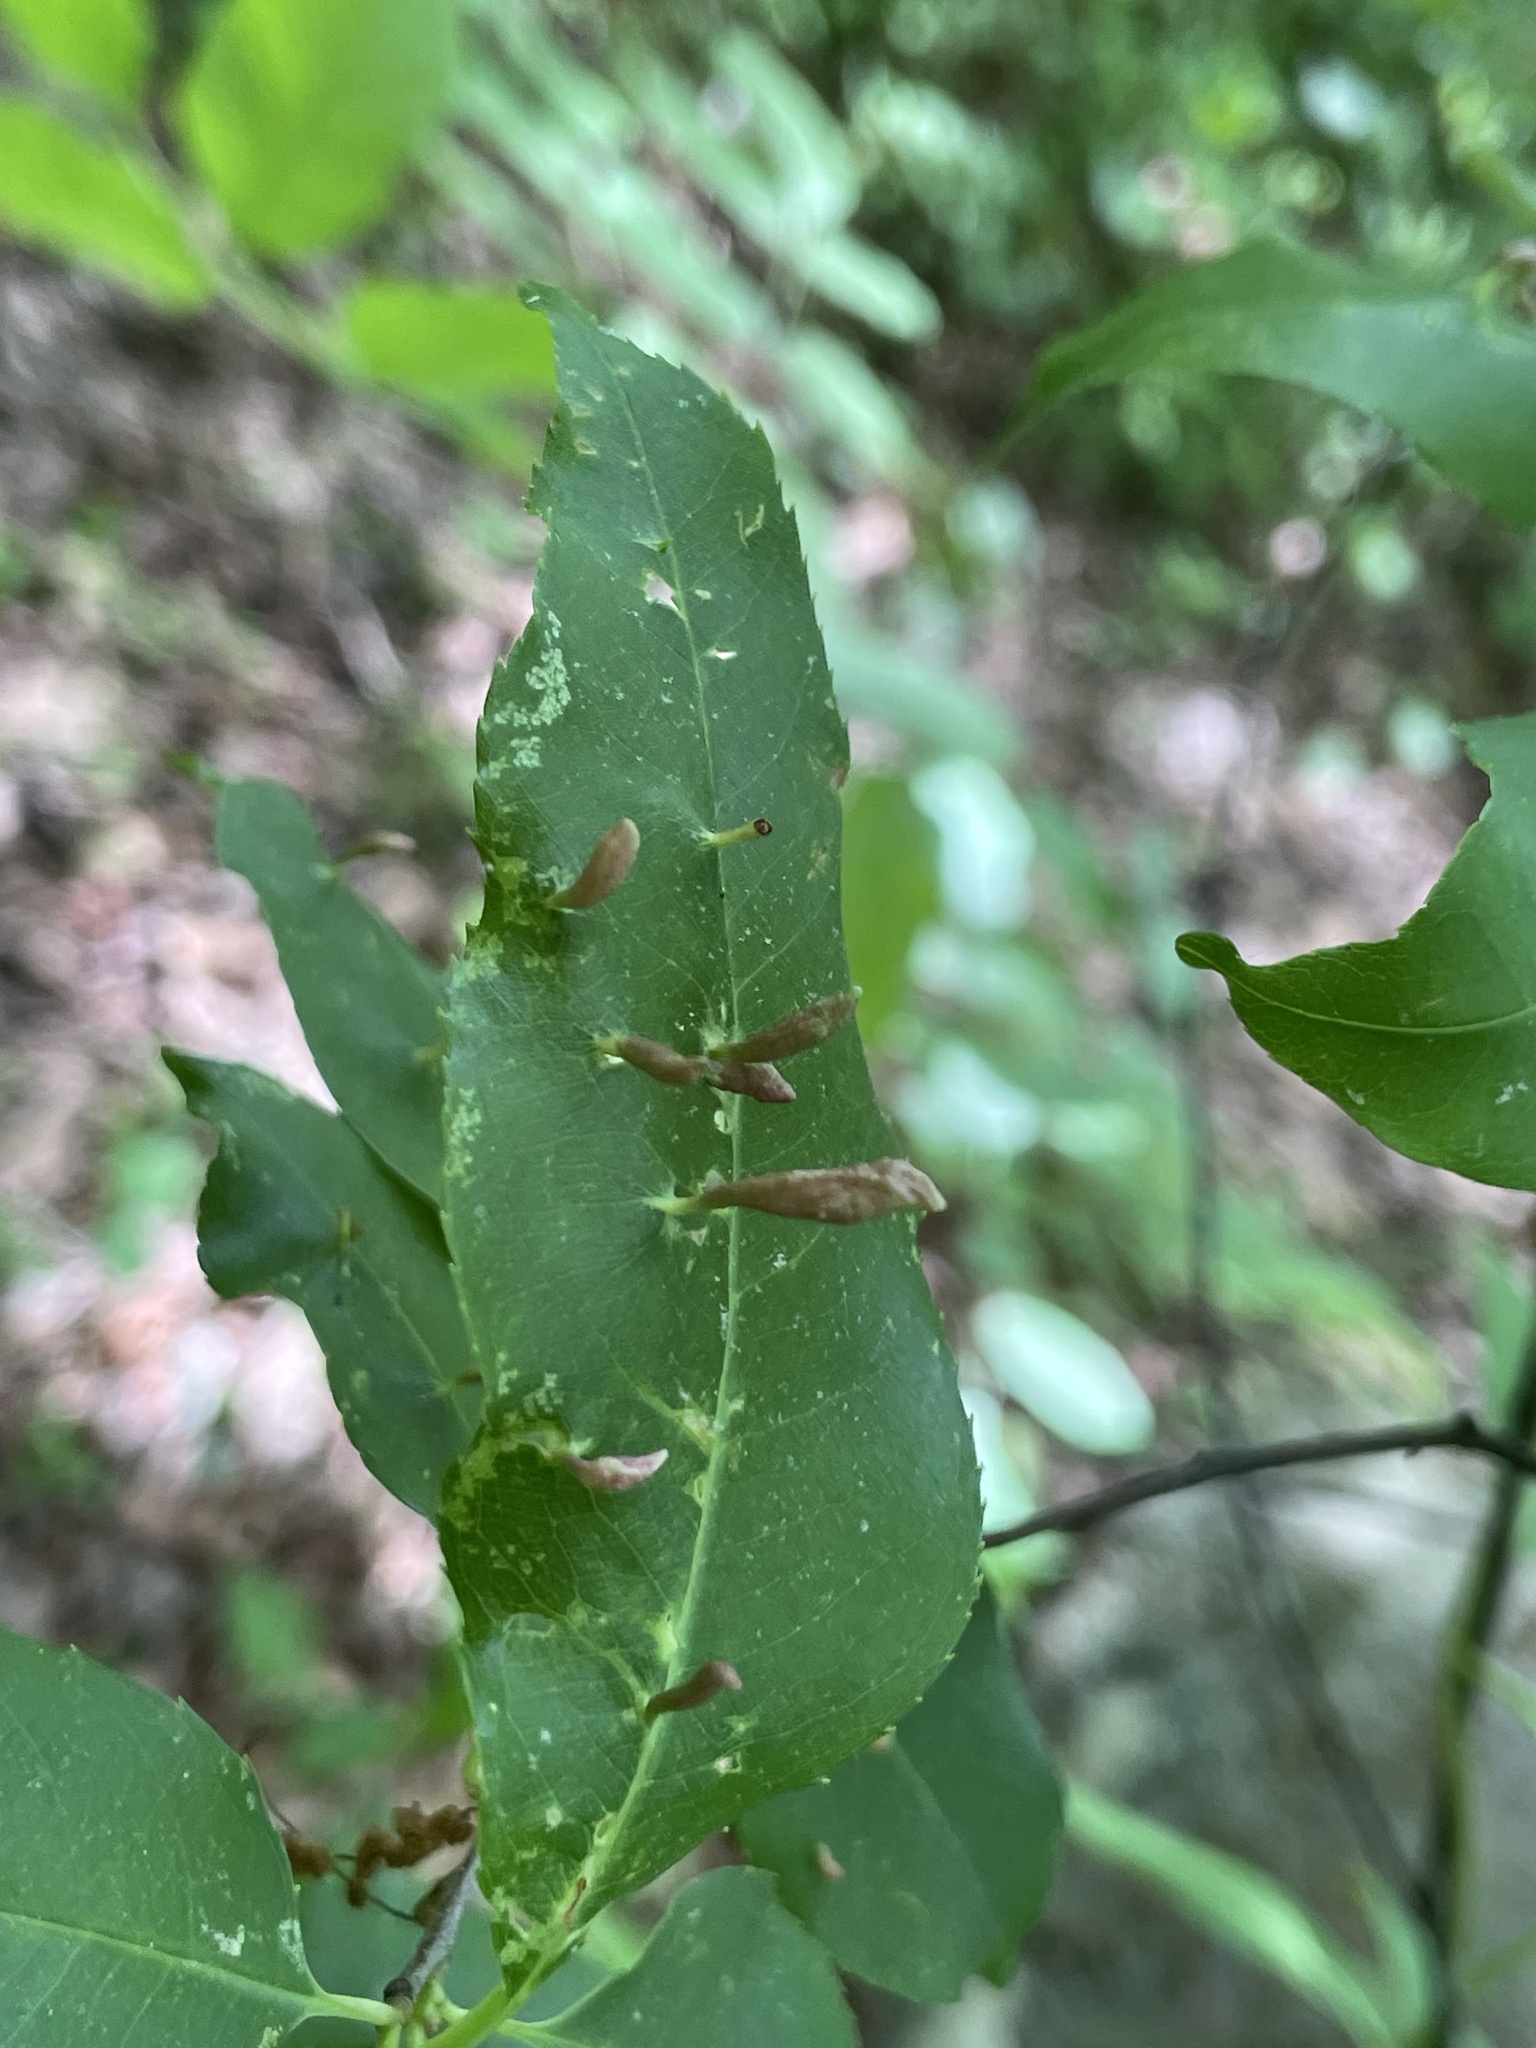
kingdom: Animalia
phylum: Arthropoda
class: Arachnida
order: Trombidiformes
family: Eriophyidae
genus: Eriophyes
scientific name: Eriophyes
